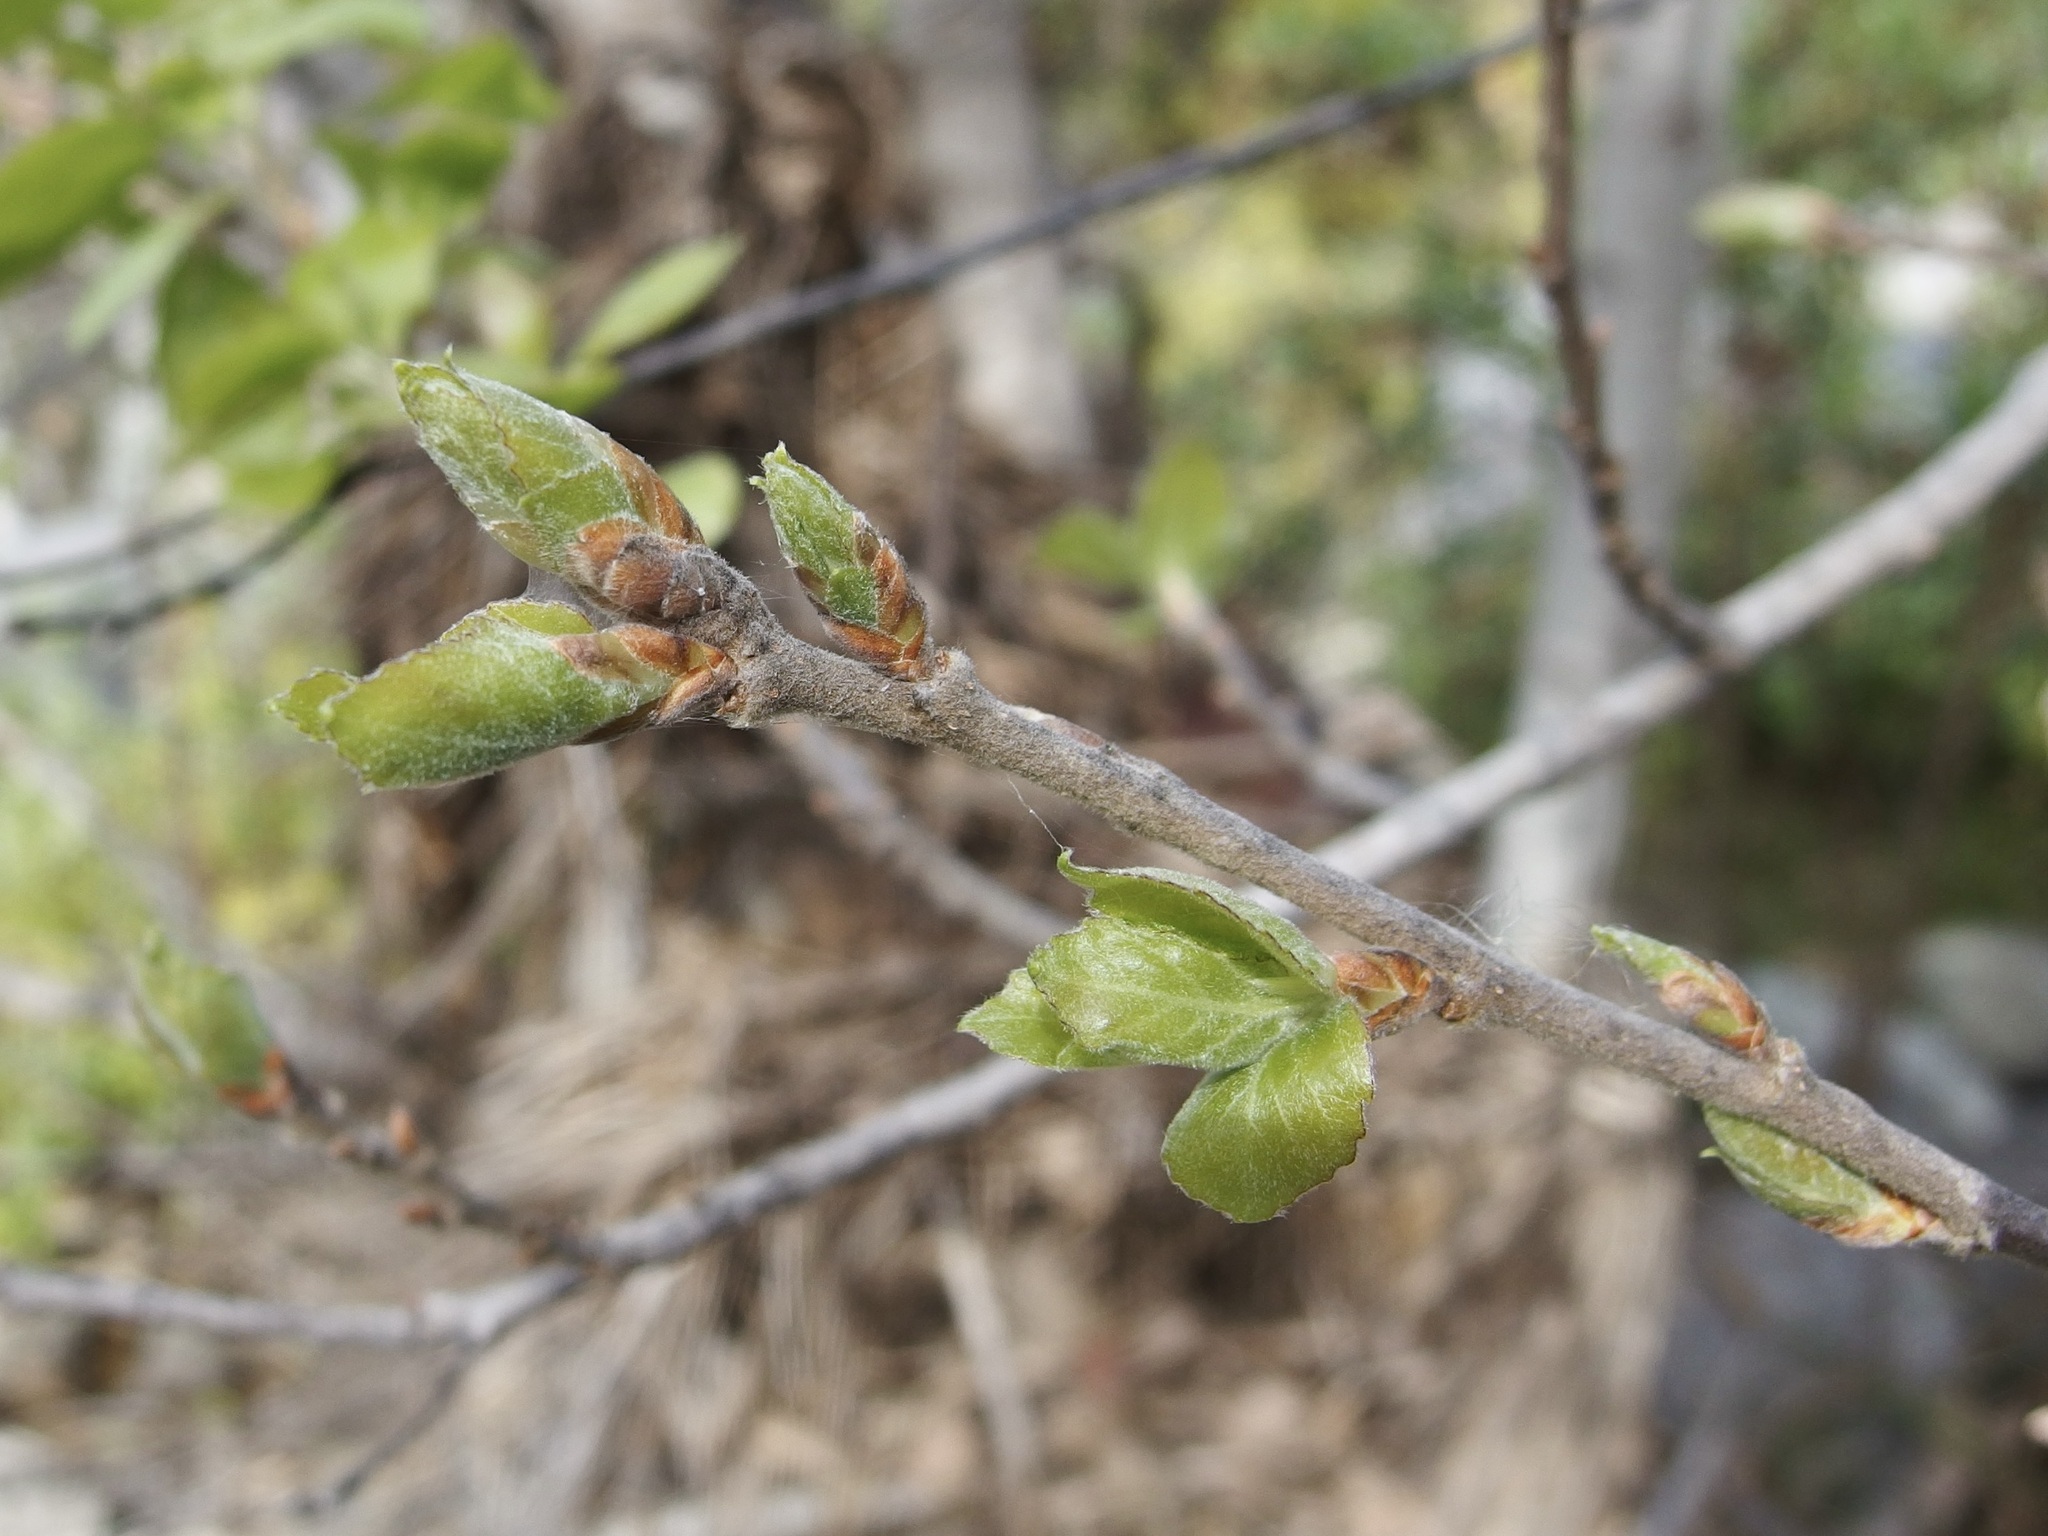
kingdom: Plantae
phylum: Tracheophyta
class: Magnoliopsida
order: Malpighiales
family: Salicaceae
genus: Populus
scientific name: Populus brandegeei
